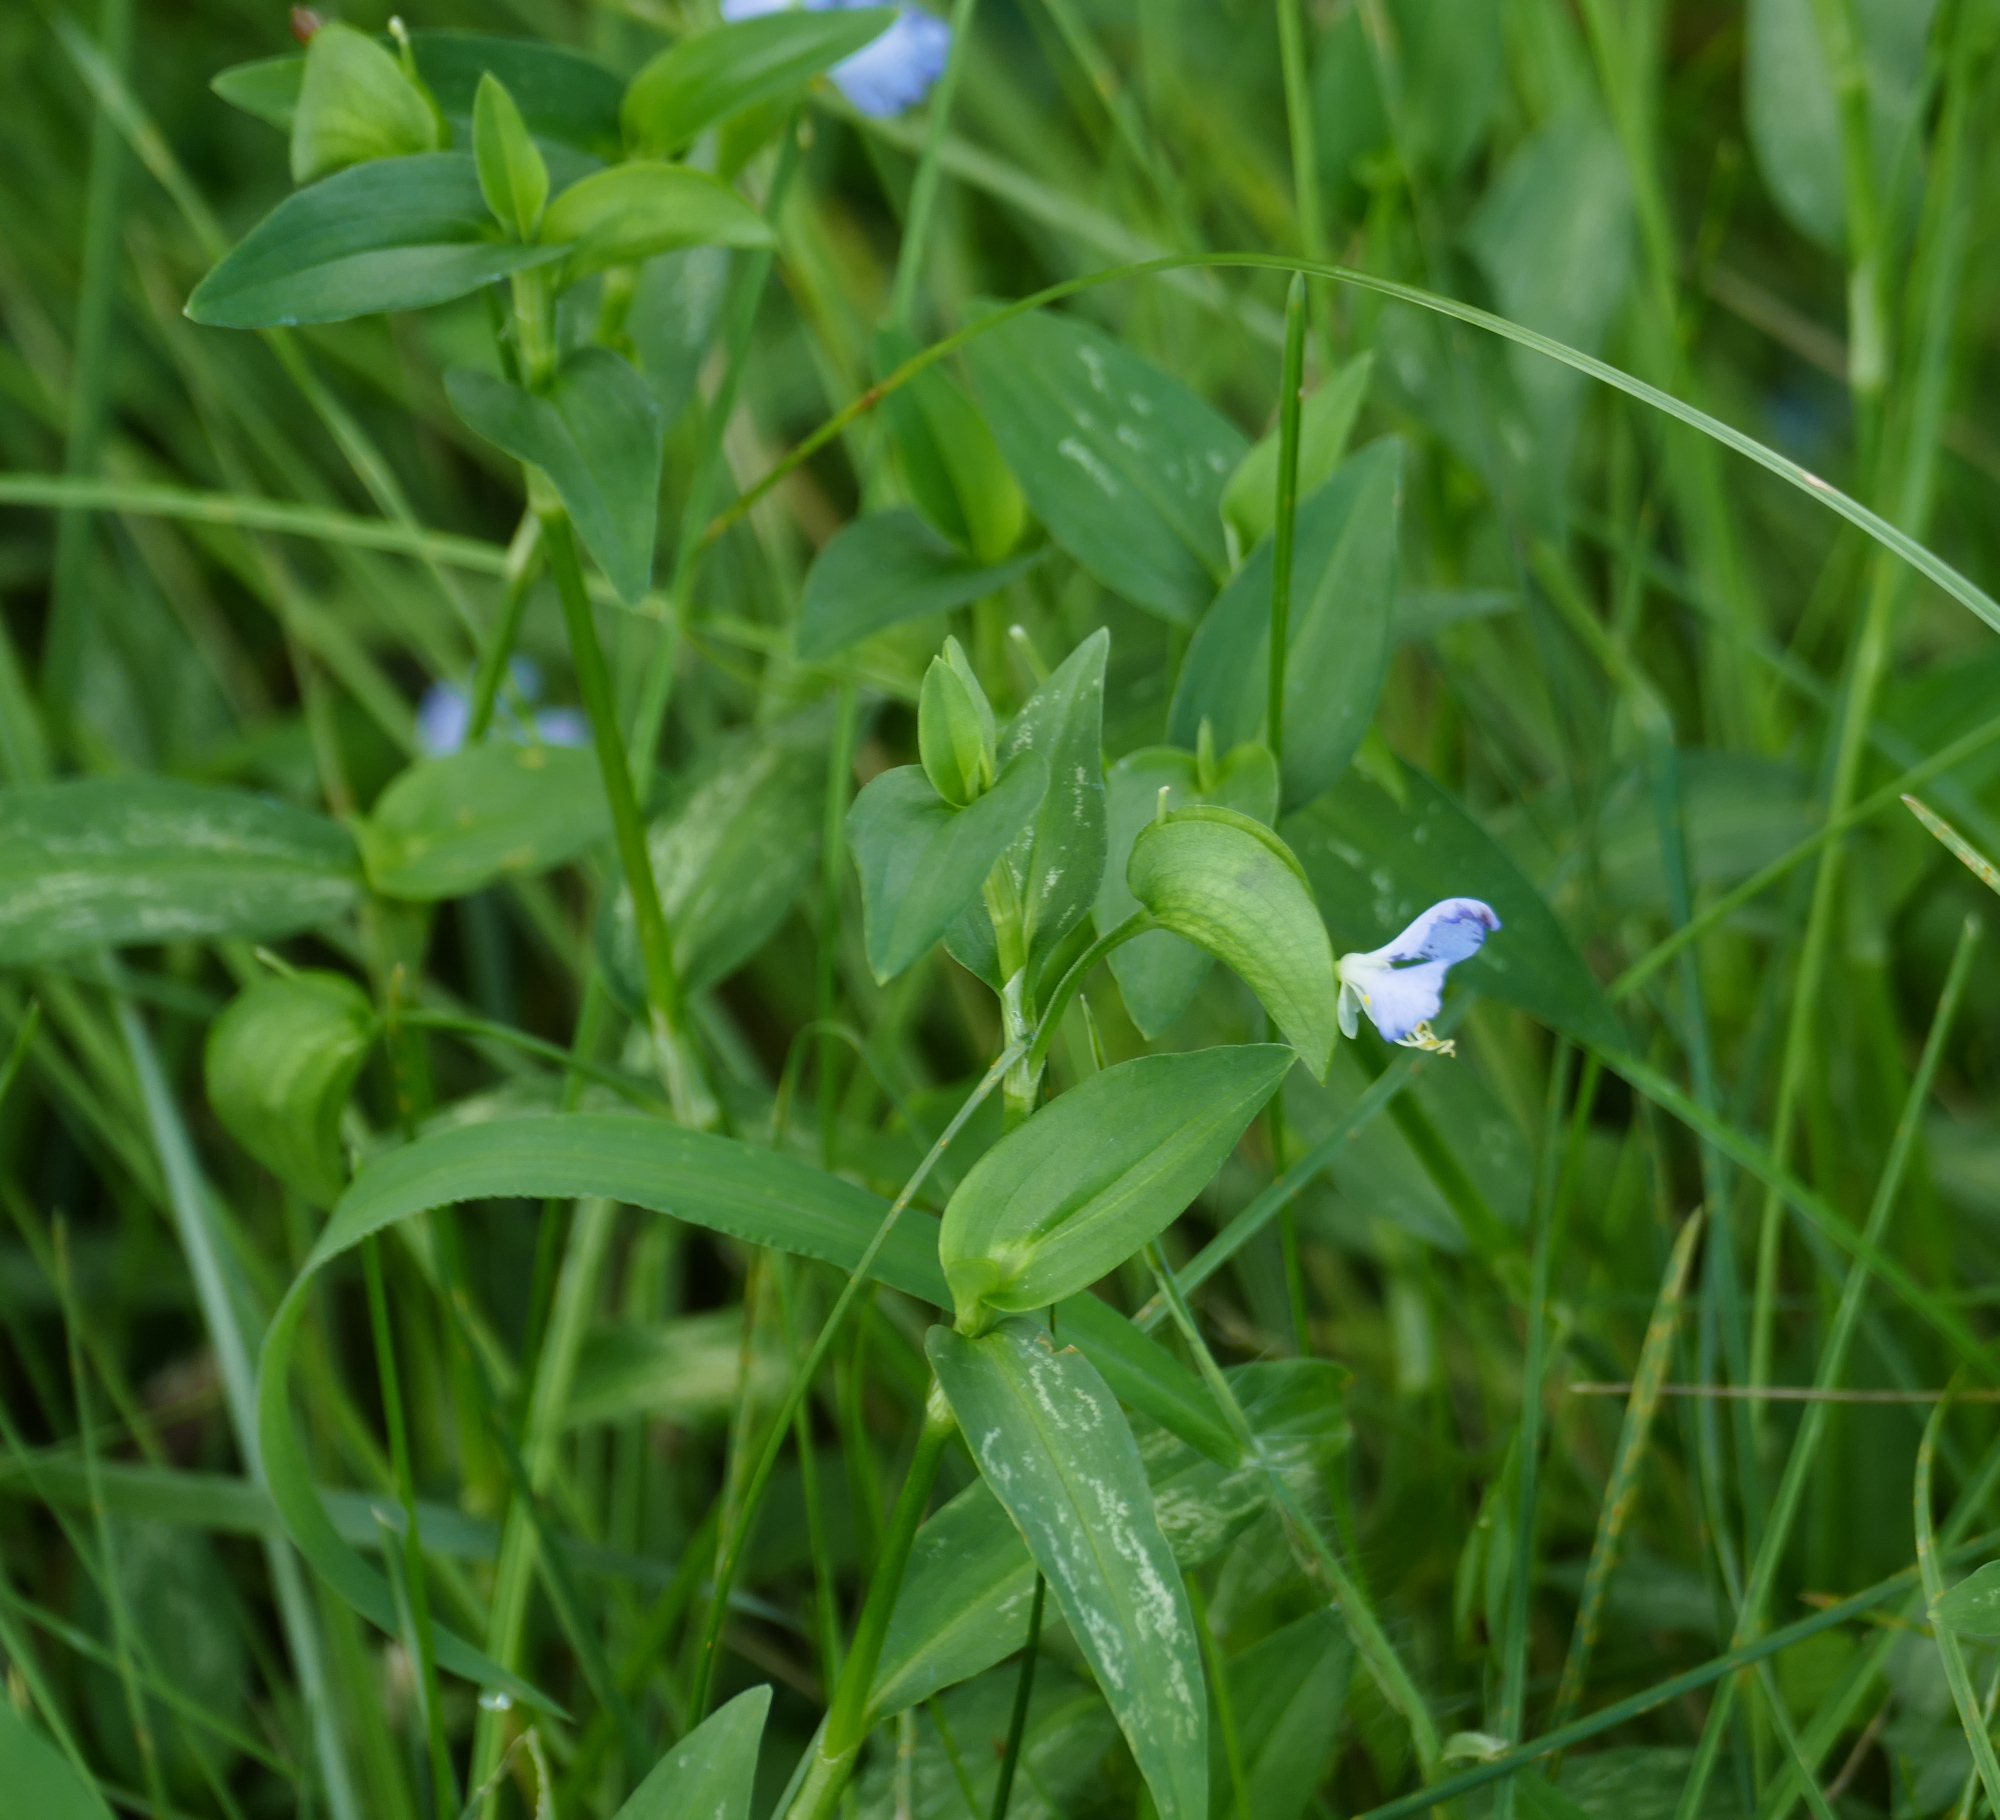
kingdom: Plantae
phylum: Tracheophyta
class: Liliopsida
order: Commelinales
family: Commelinaceae
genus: Commelina
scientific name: Commelina communis
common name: Asiatic dayflower
